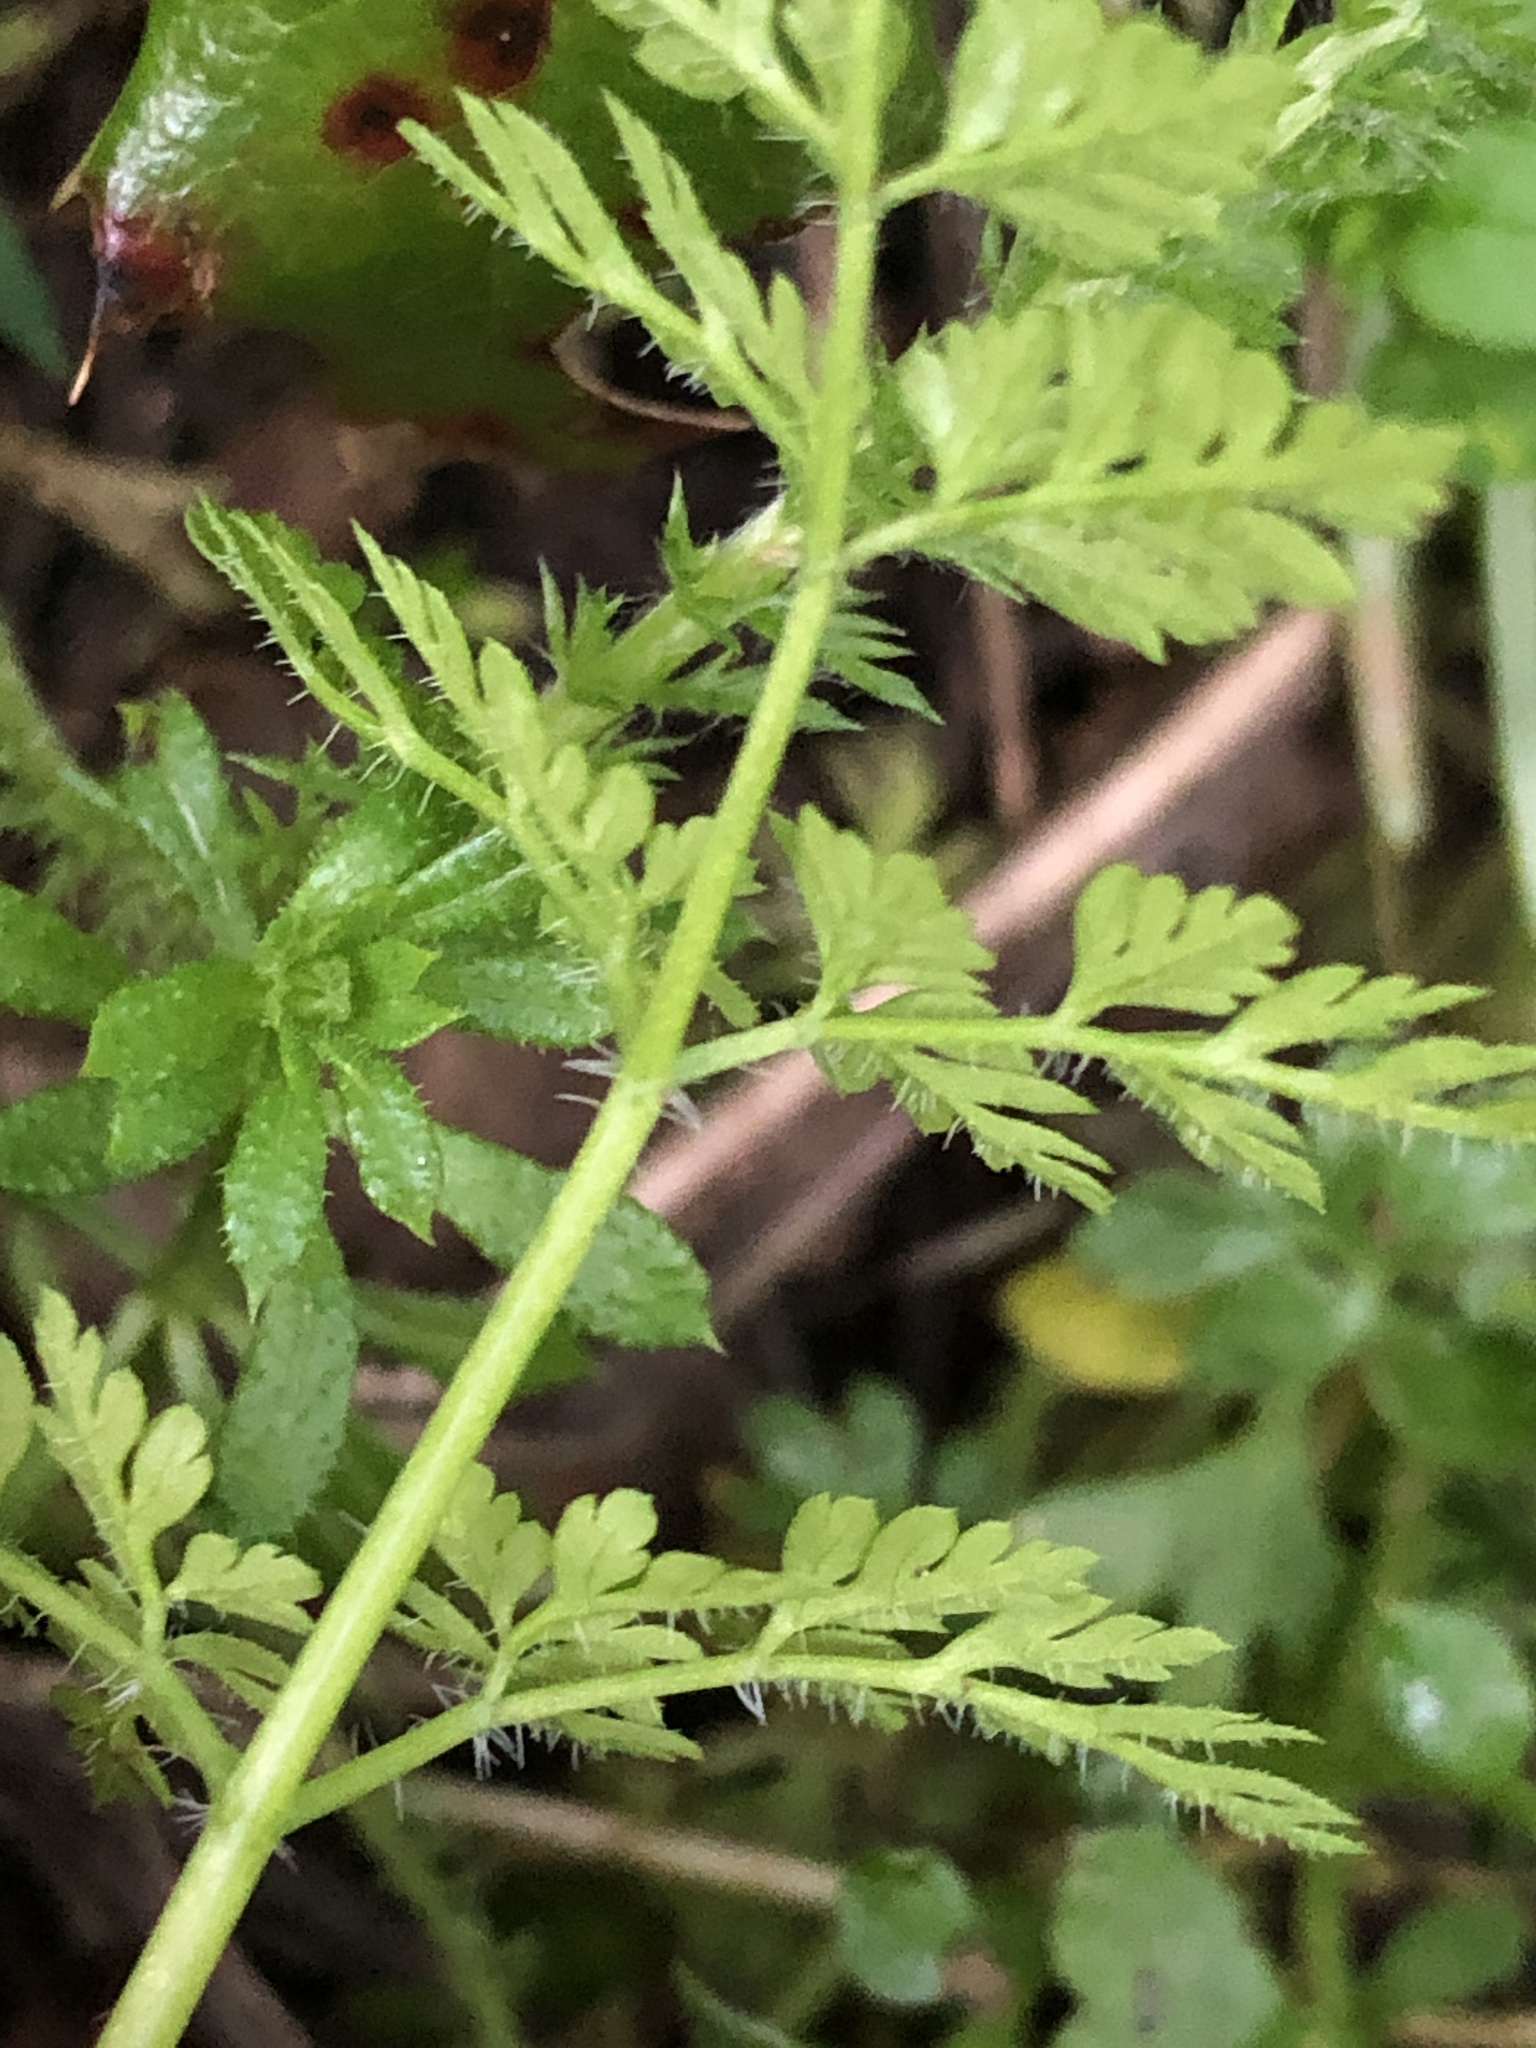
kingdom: Plantae
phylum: Tracheophyta
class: Magnoliopsida
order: Apiales
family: Apiaceae
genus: Anthriscus
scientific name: Anthriscus caucalis
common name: Bur chervil
